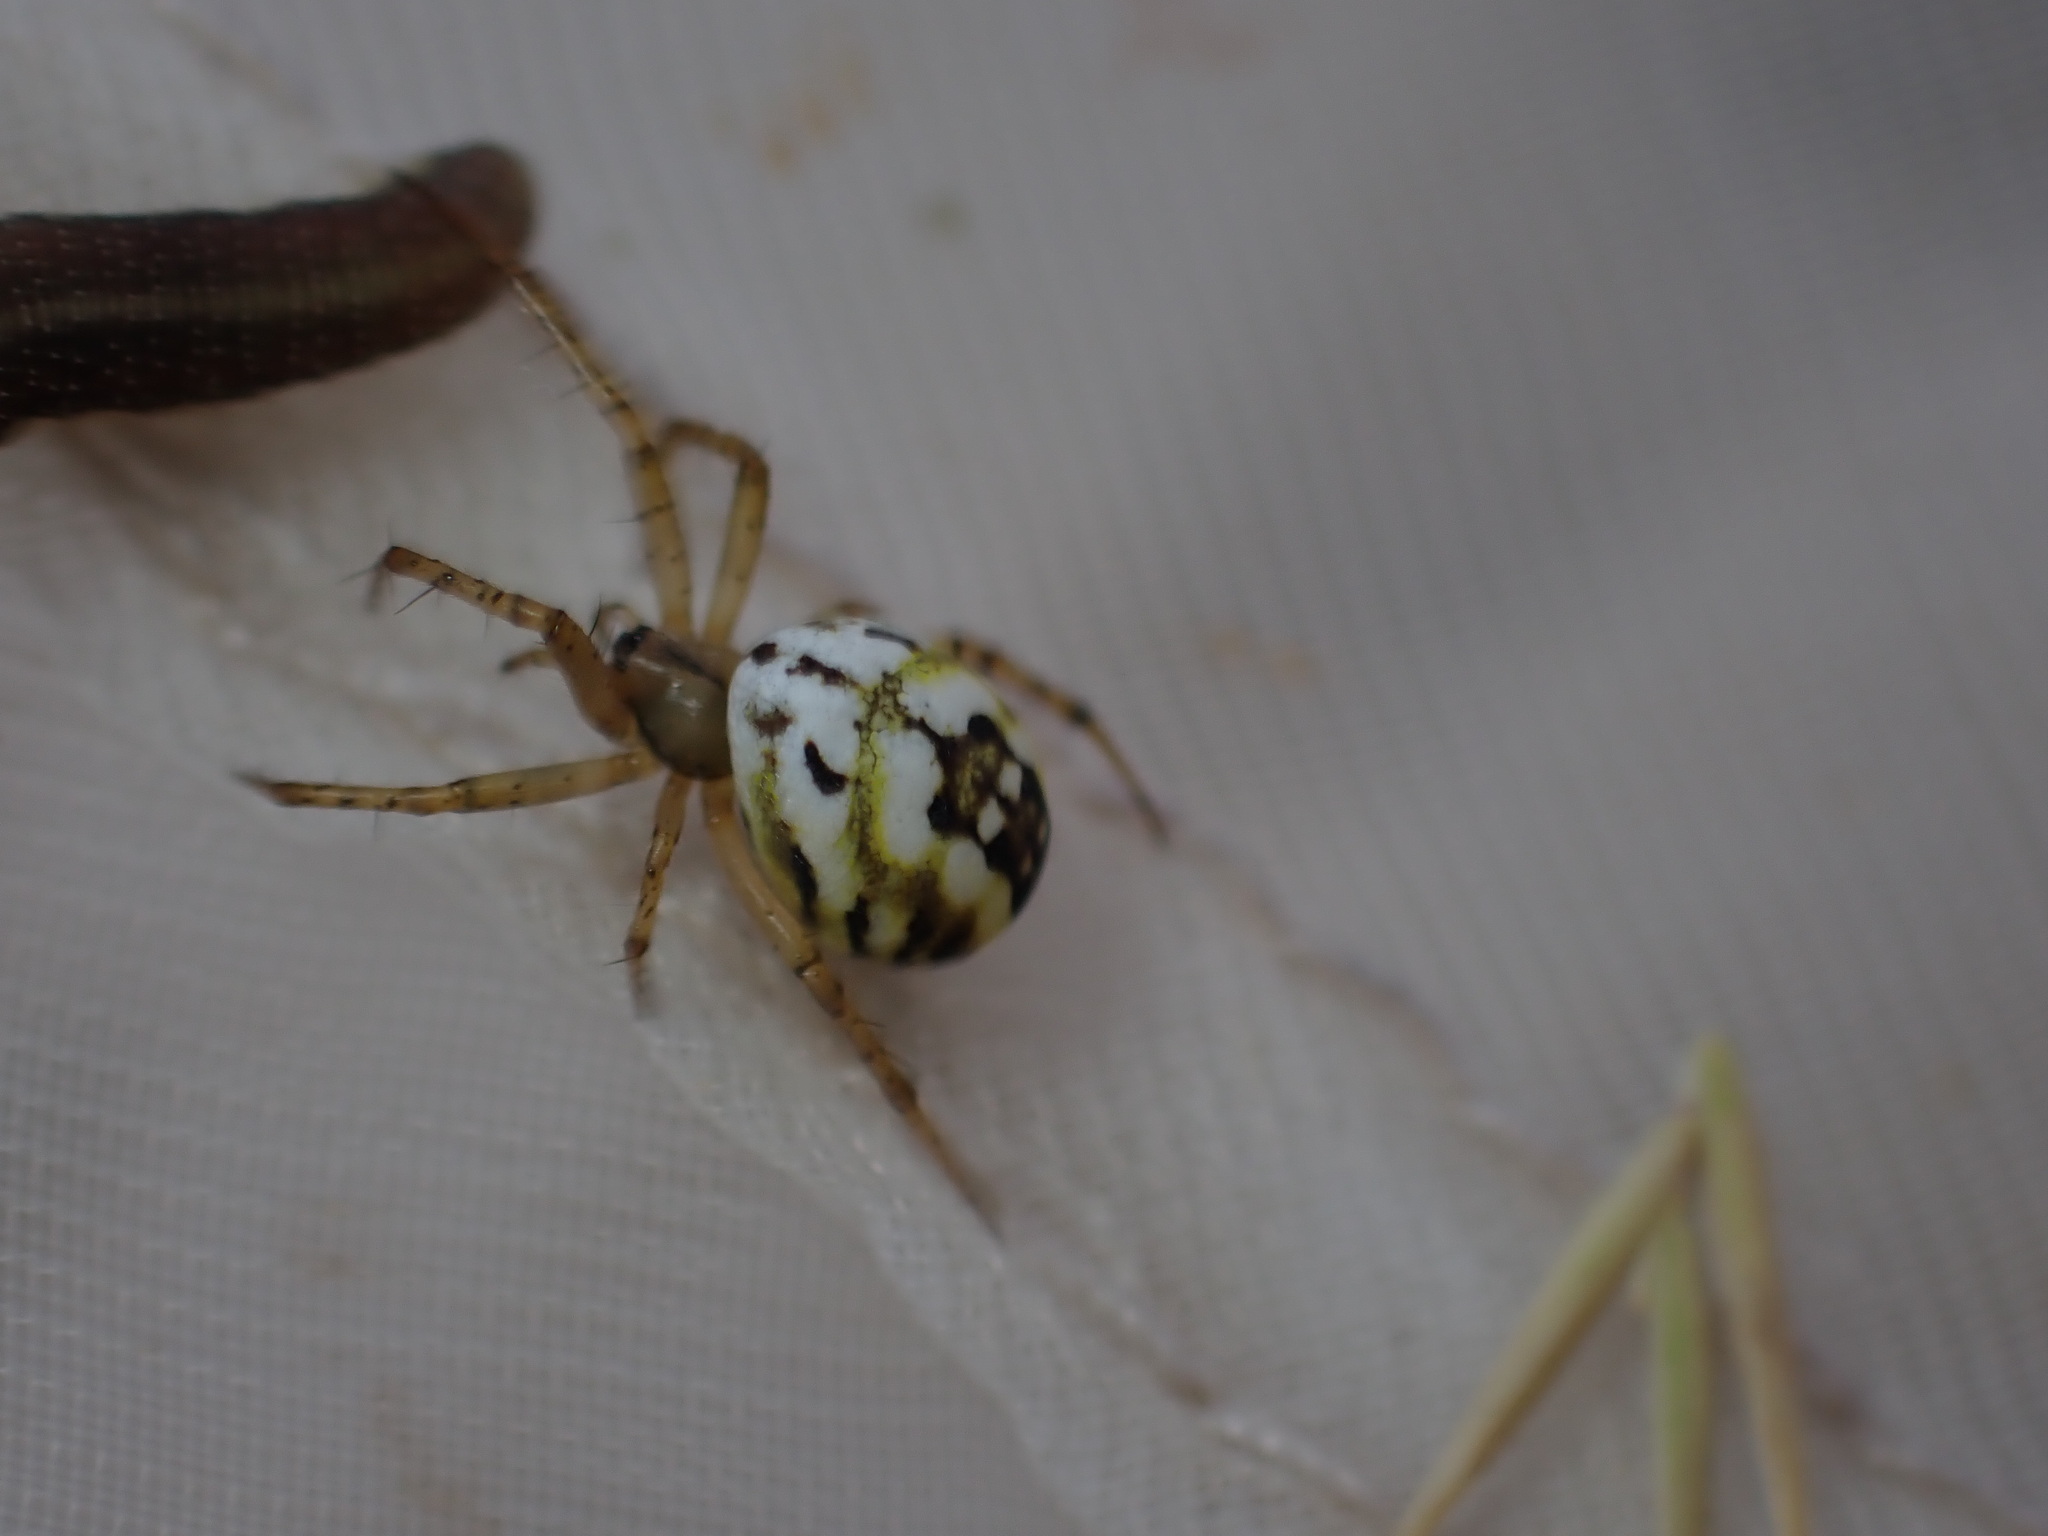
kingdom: Animalia
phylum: Arthropoda
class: Arachnida
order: Araneae
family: Araneidae
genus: Mangora
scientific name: Mangora acalypha
